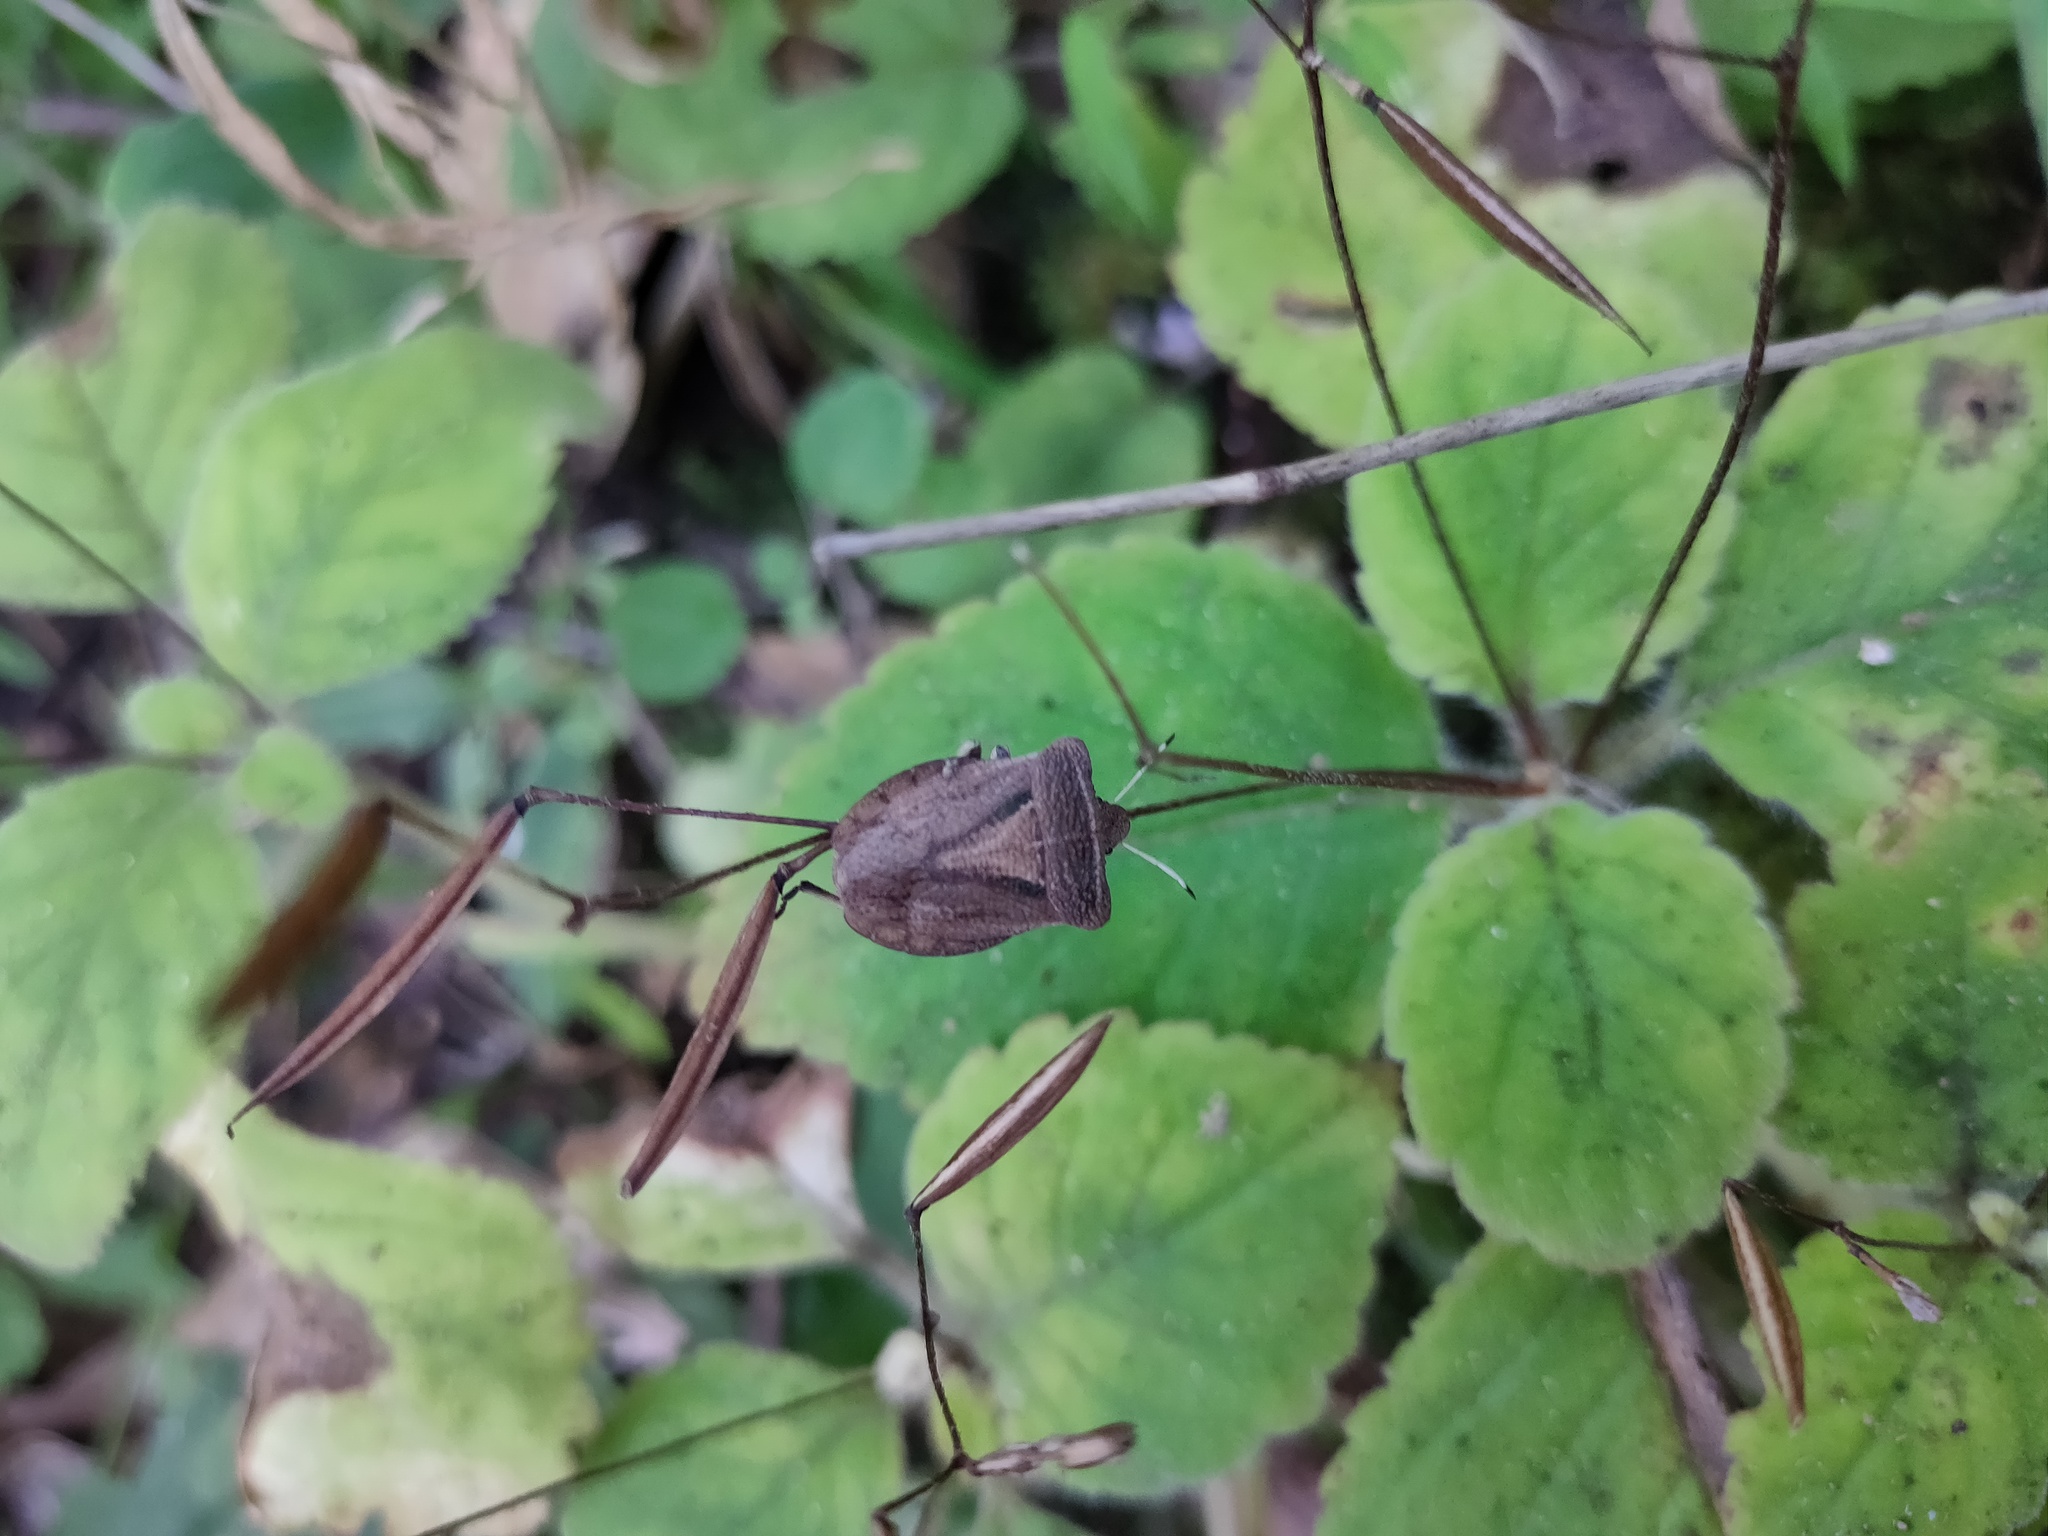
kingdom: Animalia
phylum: Arthropoda
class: Insecta
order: Hemiptera
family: Pentatomidae
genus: Dalsira
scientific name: Dalsira scabrata
